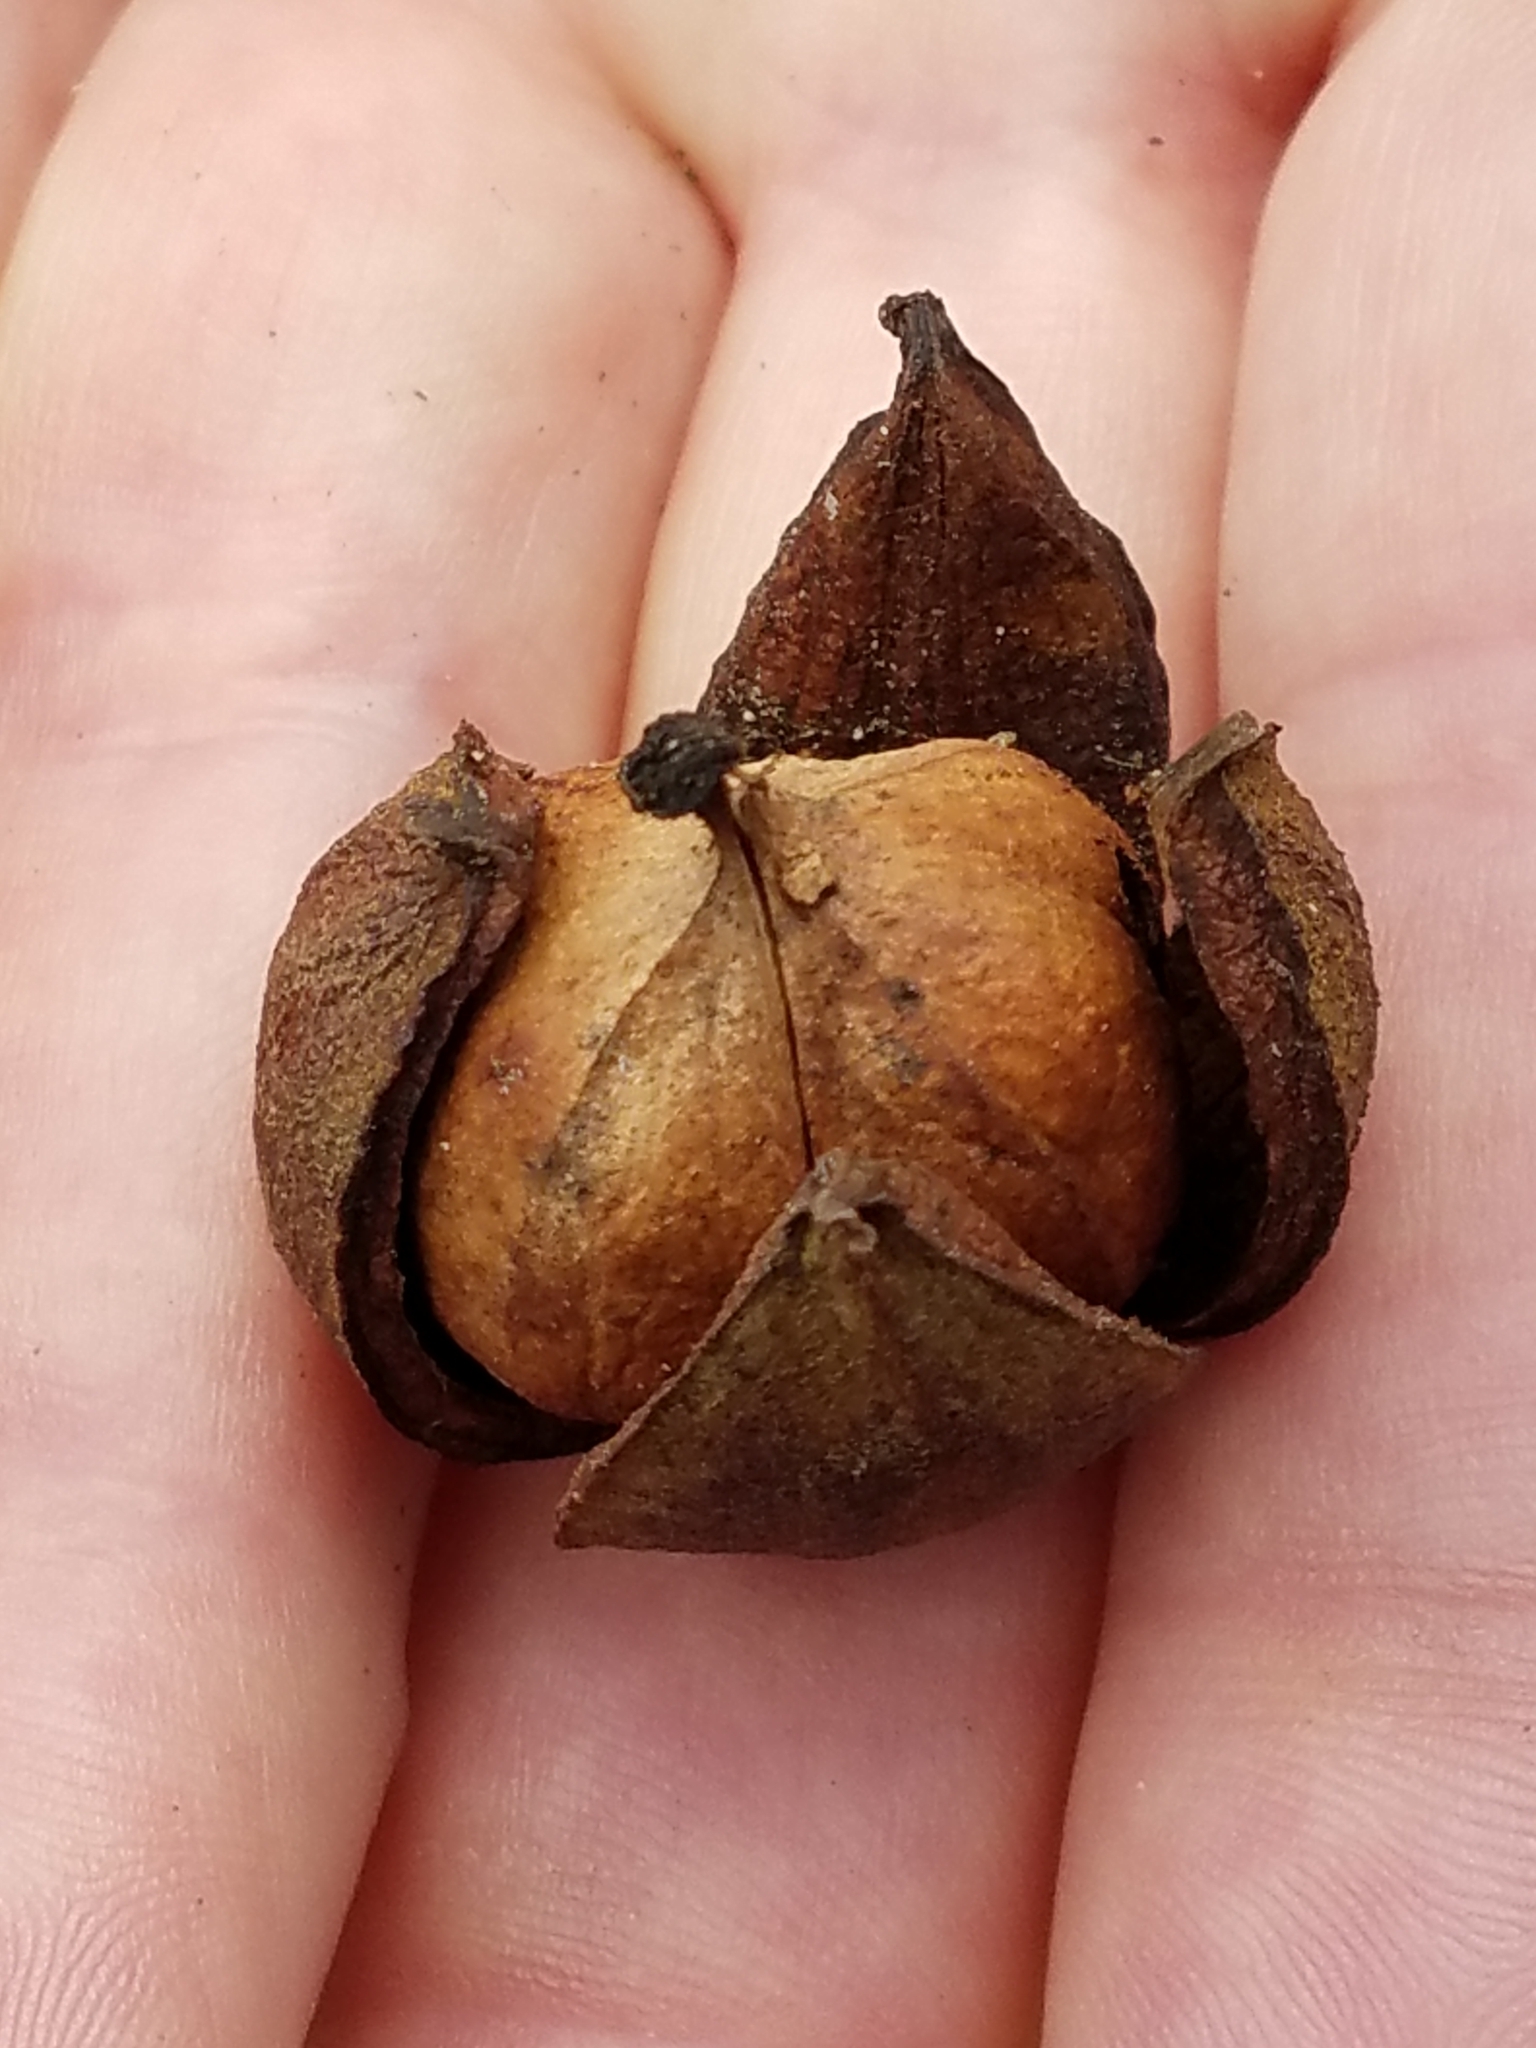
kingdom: Plantae
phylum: Tracheophyta
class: Magnoliopsida
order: Fagales
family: Juglandaceae
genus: Carya
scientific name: Carya
